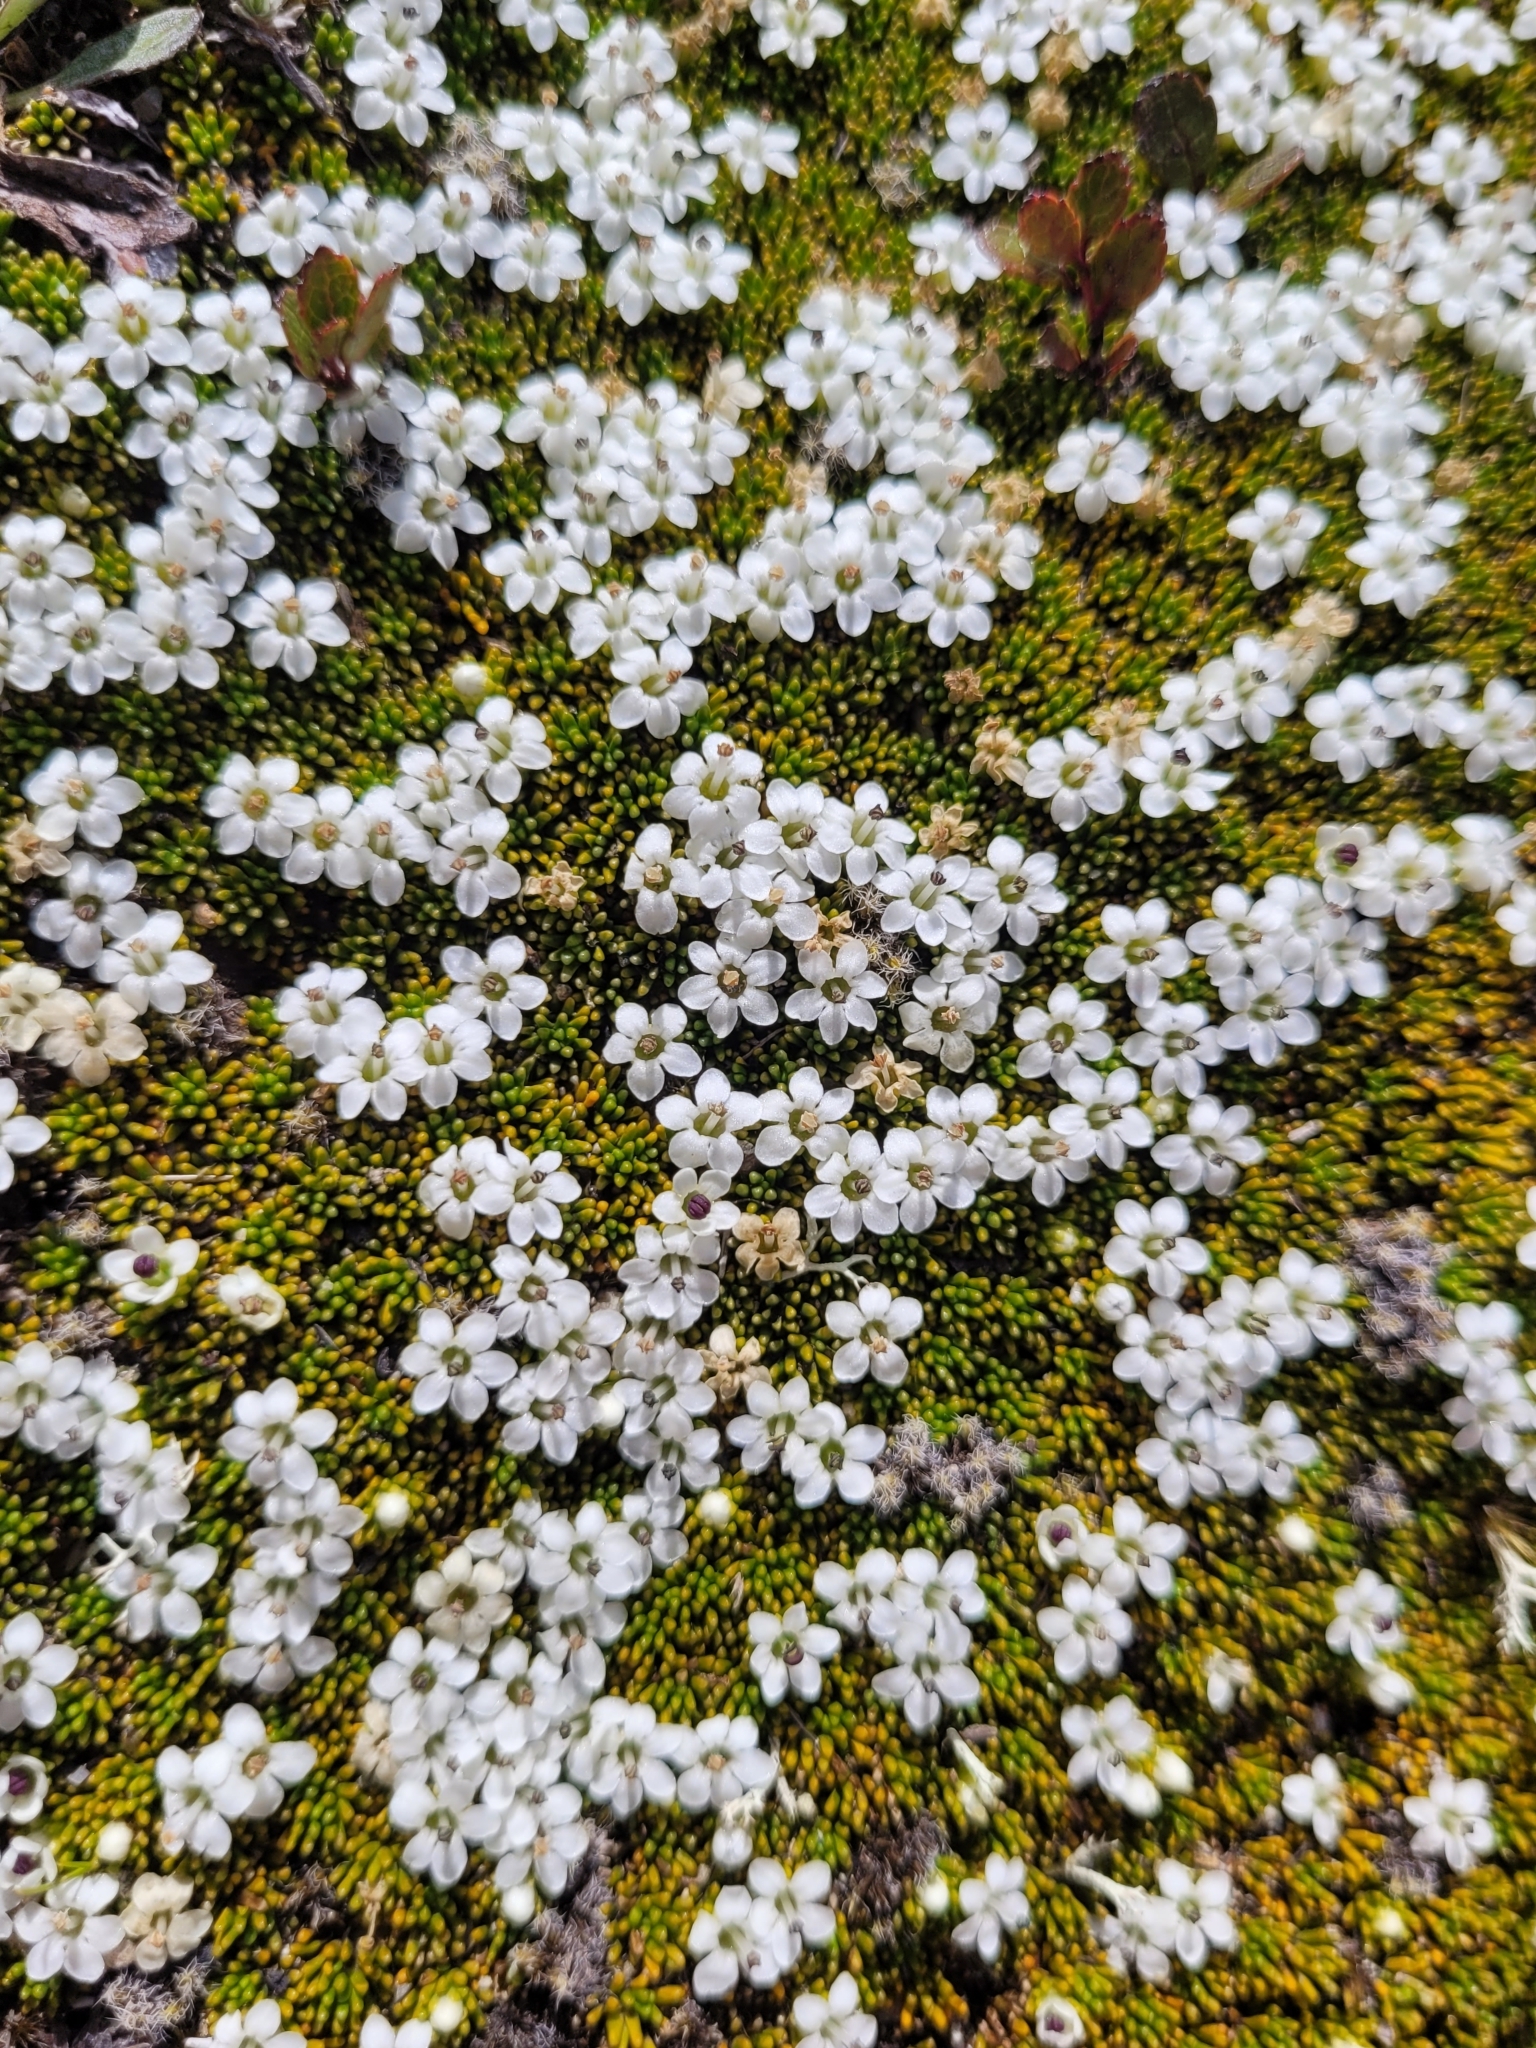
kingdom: Plantae
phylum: Tracheophyta
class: Magnoliopsida
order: Asterales
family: Stylidiaceae
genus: Phyllachne
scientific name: Phyllachne colensoi
